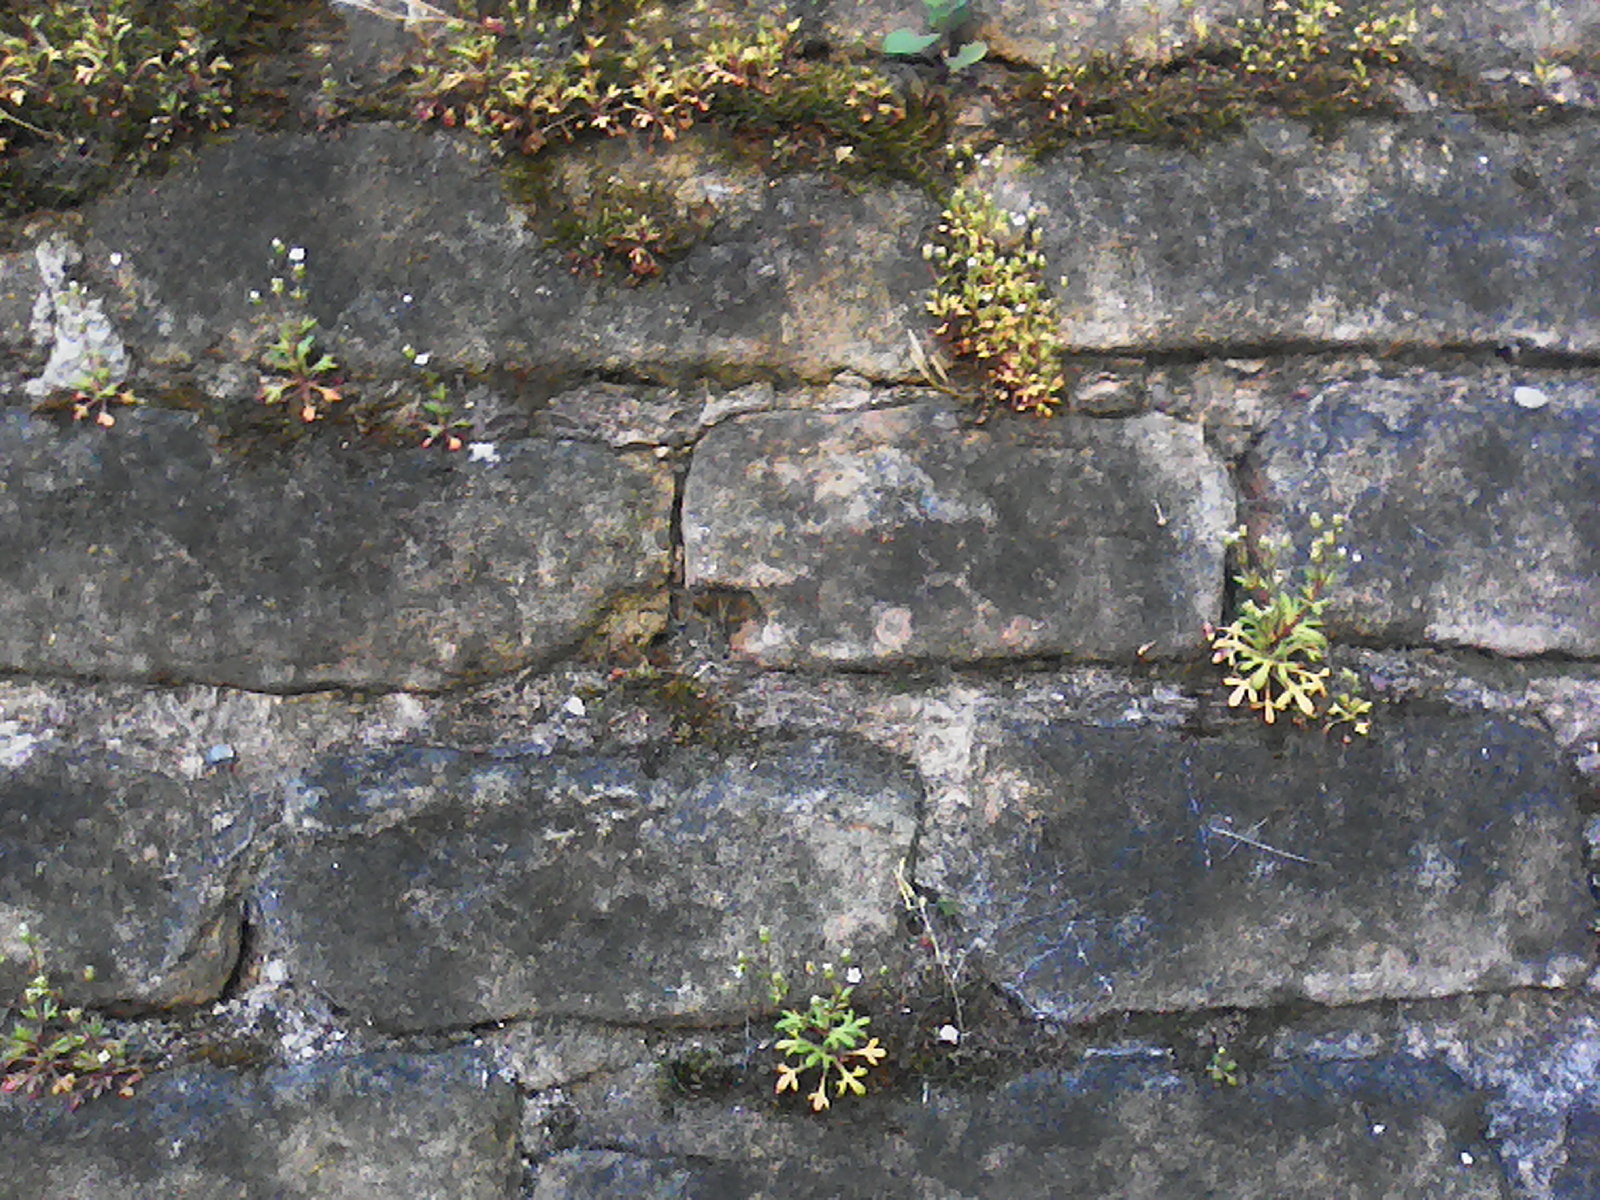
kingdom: Plantae
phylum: Tracheophyta
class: Magnoliopsida
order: Saxifragales
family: Saxifragaceae
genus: Saxifraga
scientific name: Saxifraga tridactylites
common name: Rue-leaved saxifrage
